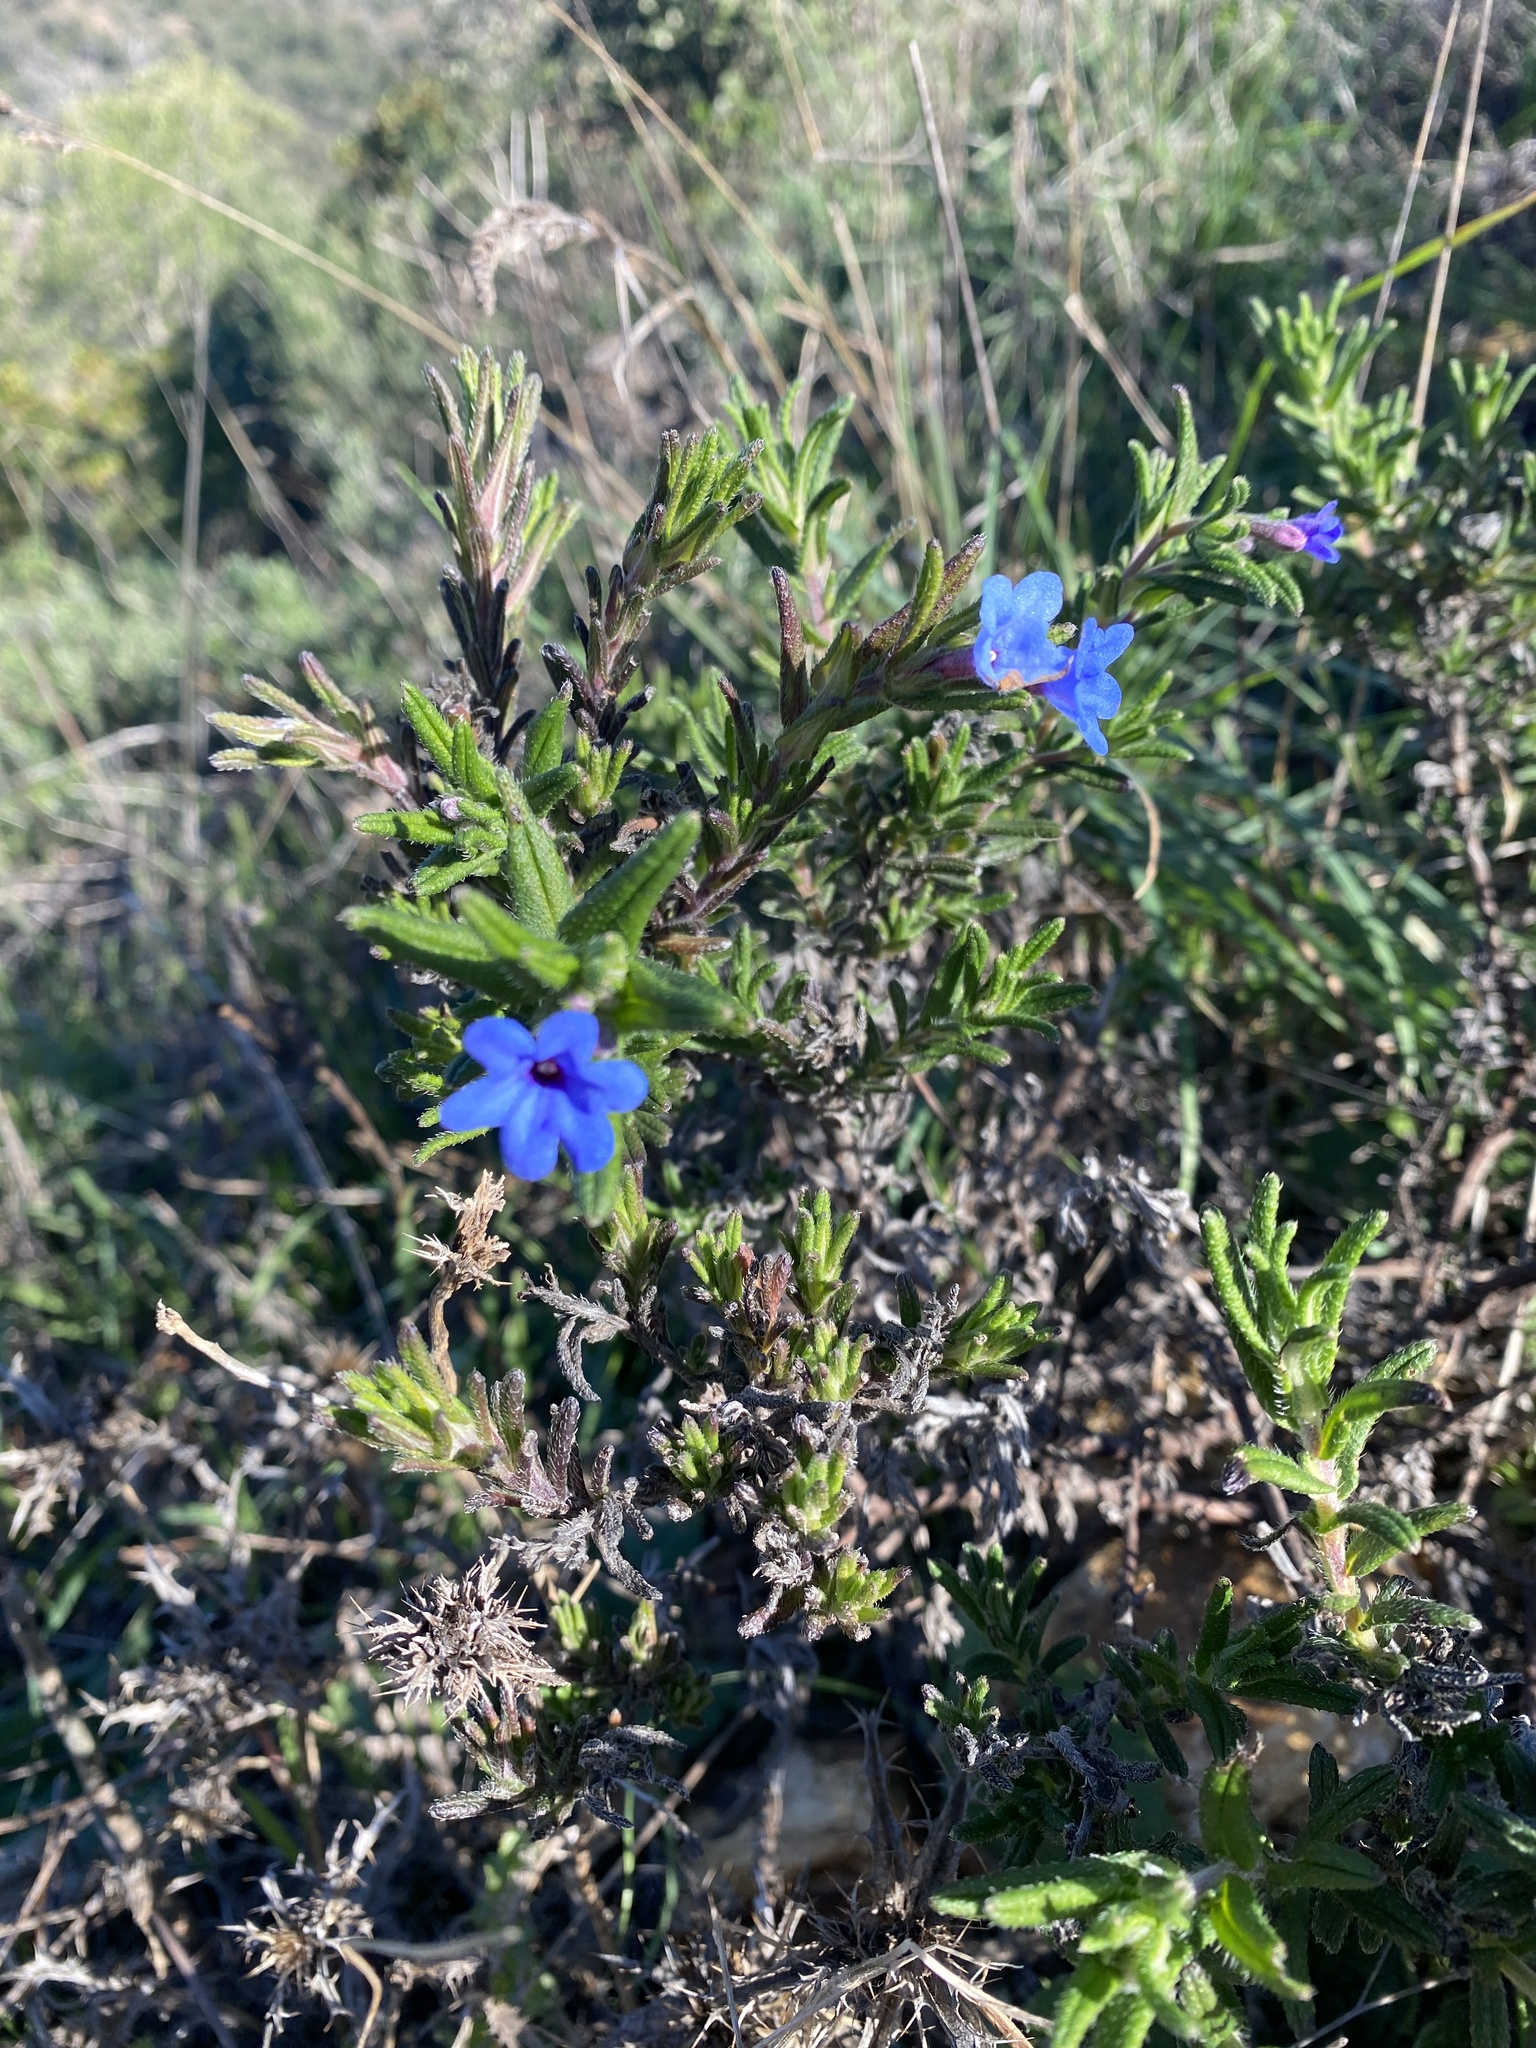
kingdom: Plantae
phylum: Tracheophyta
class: Magnoliopsida
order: Boraginales
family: Boraginaceae
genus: Glandora
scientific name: Glandora prostrata
